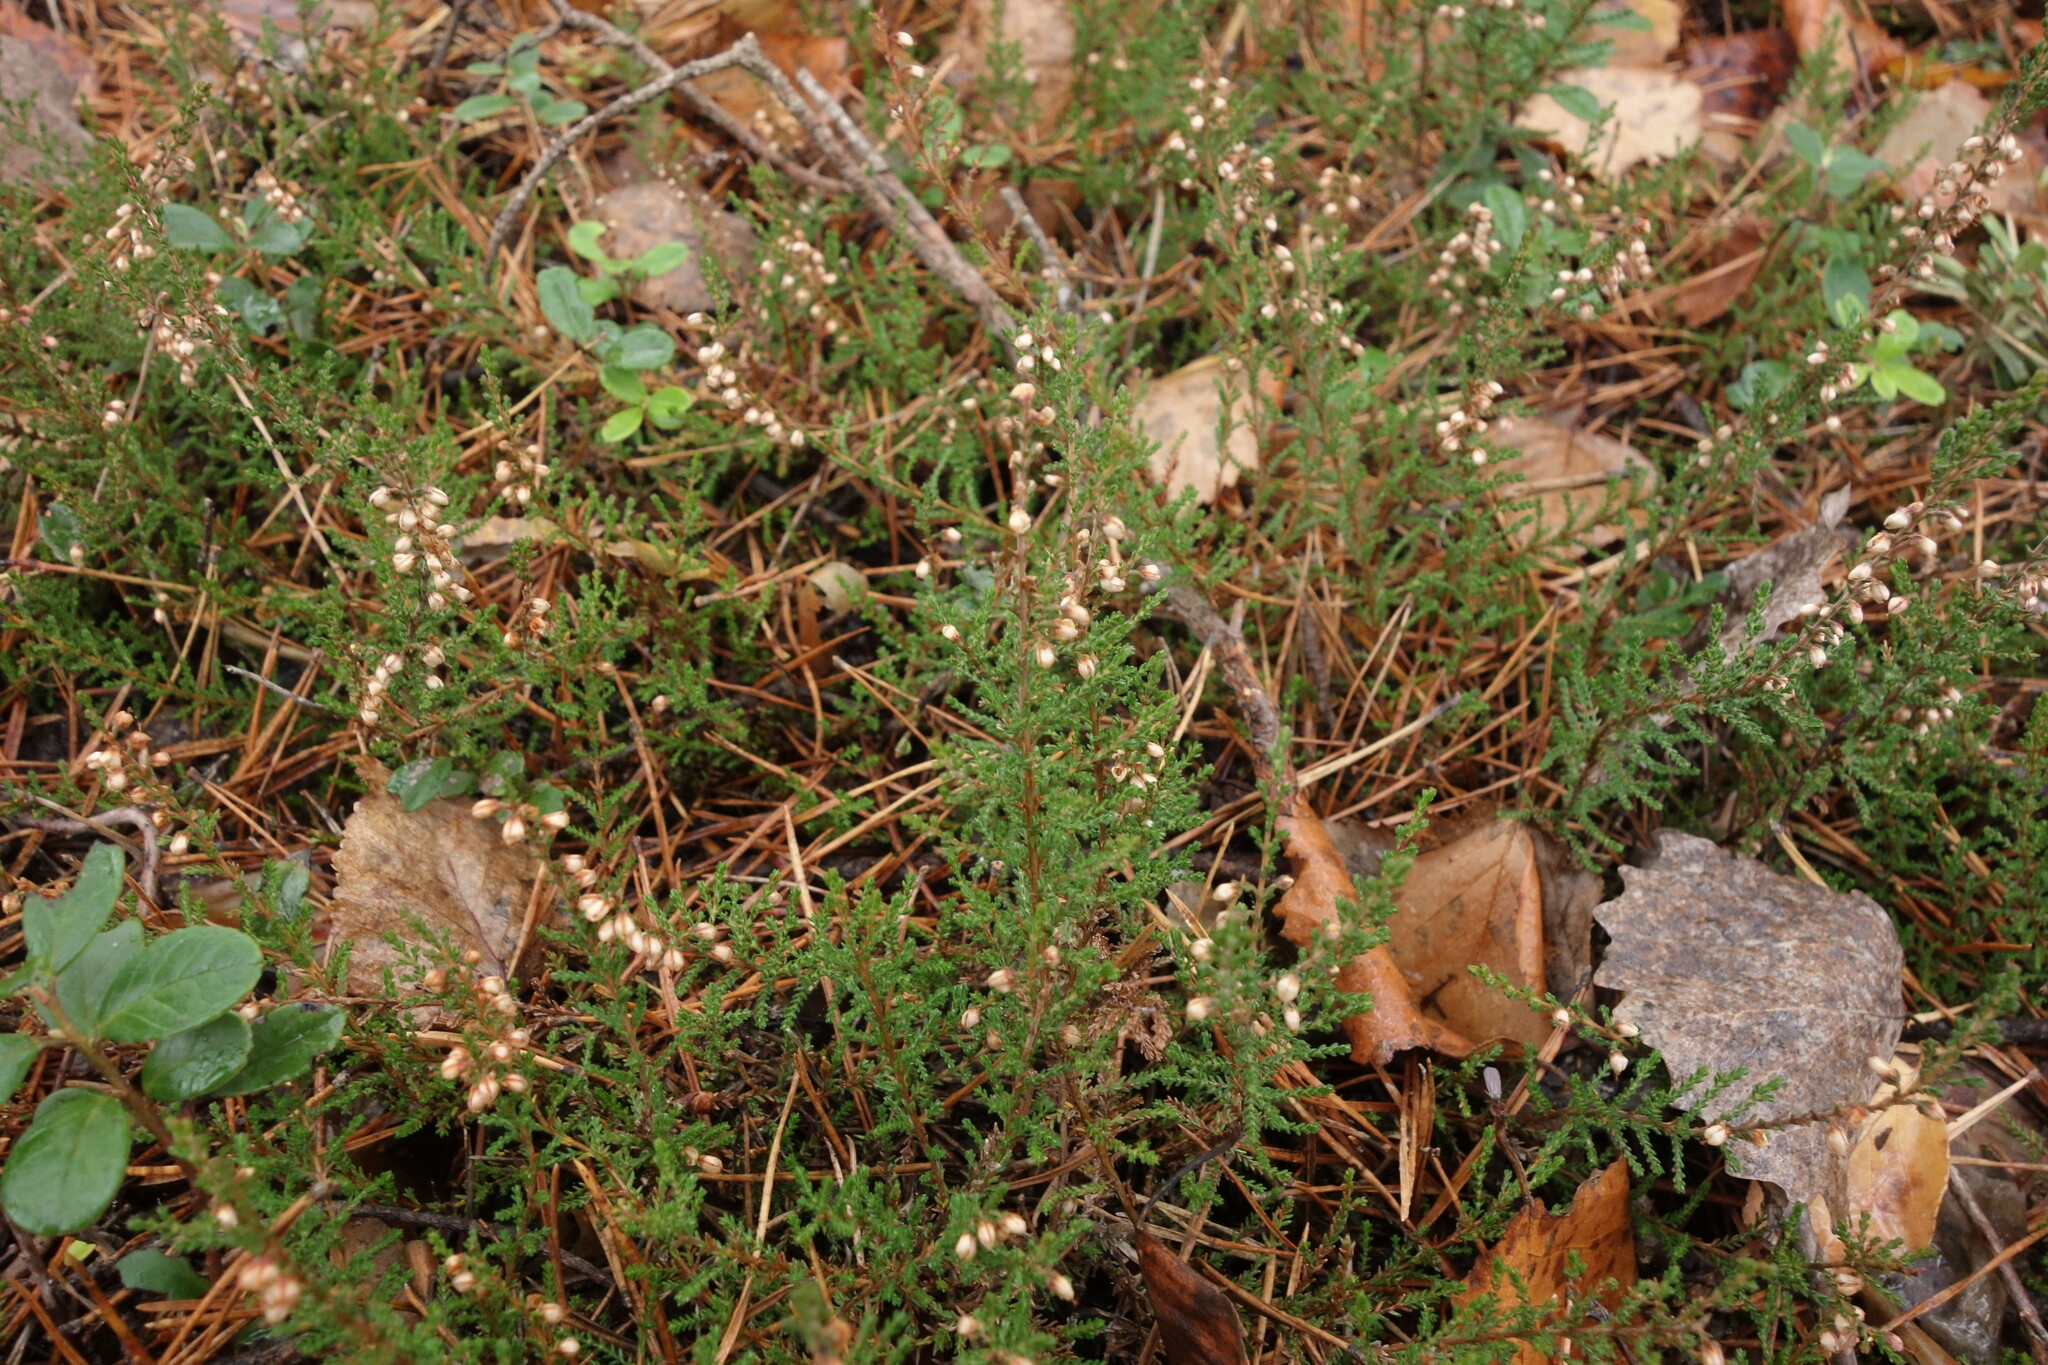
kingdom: Plantae
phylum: Tracheophyta
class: Magnoliopsida
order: Ericales
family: Ericaceae
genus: Calluna
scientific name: Calluna vulgaris
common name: Heather
